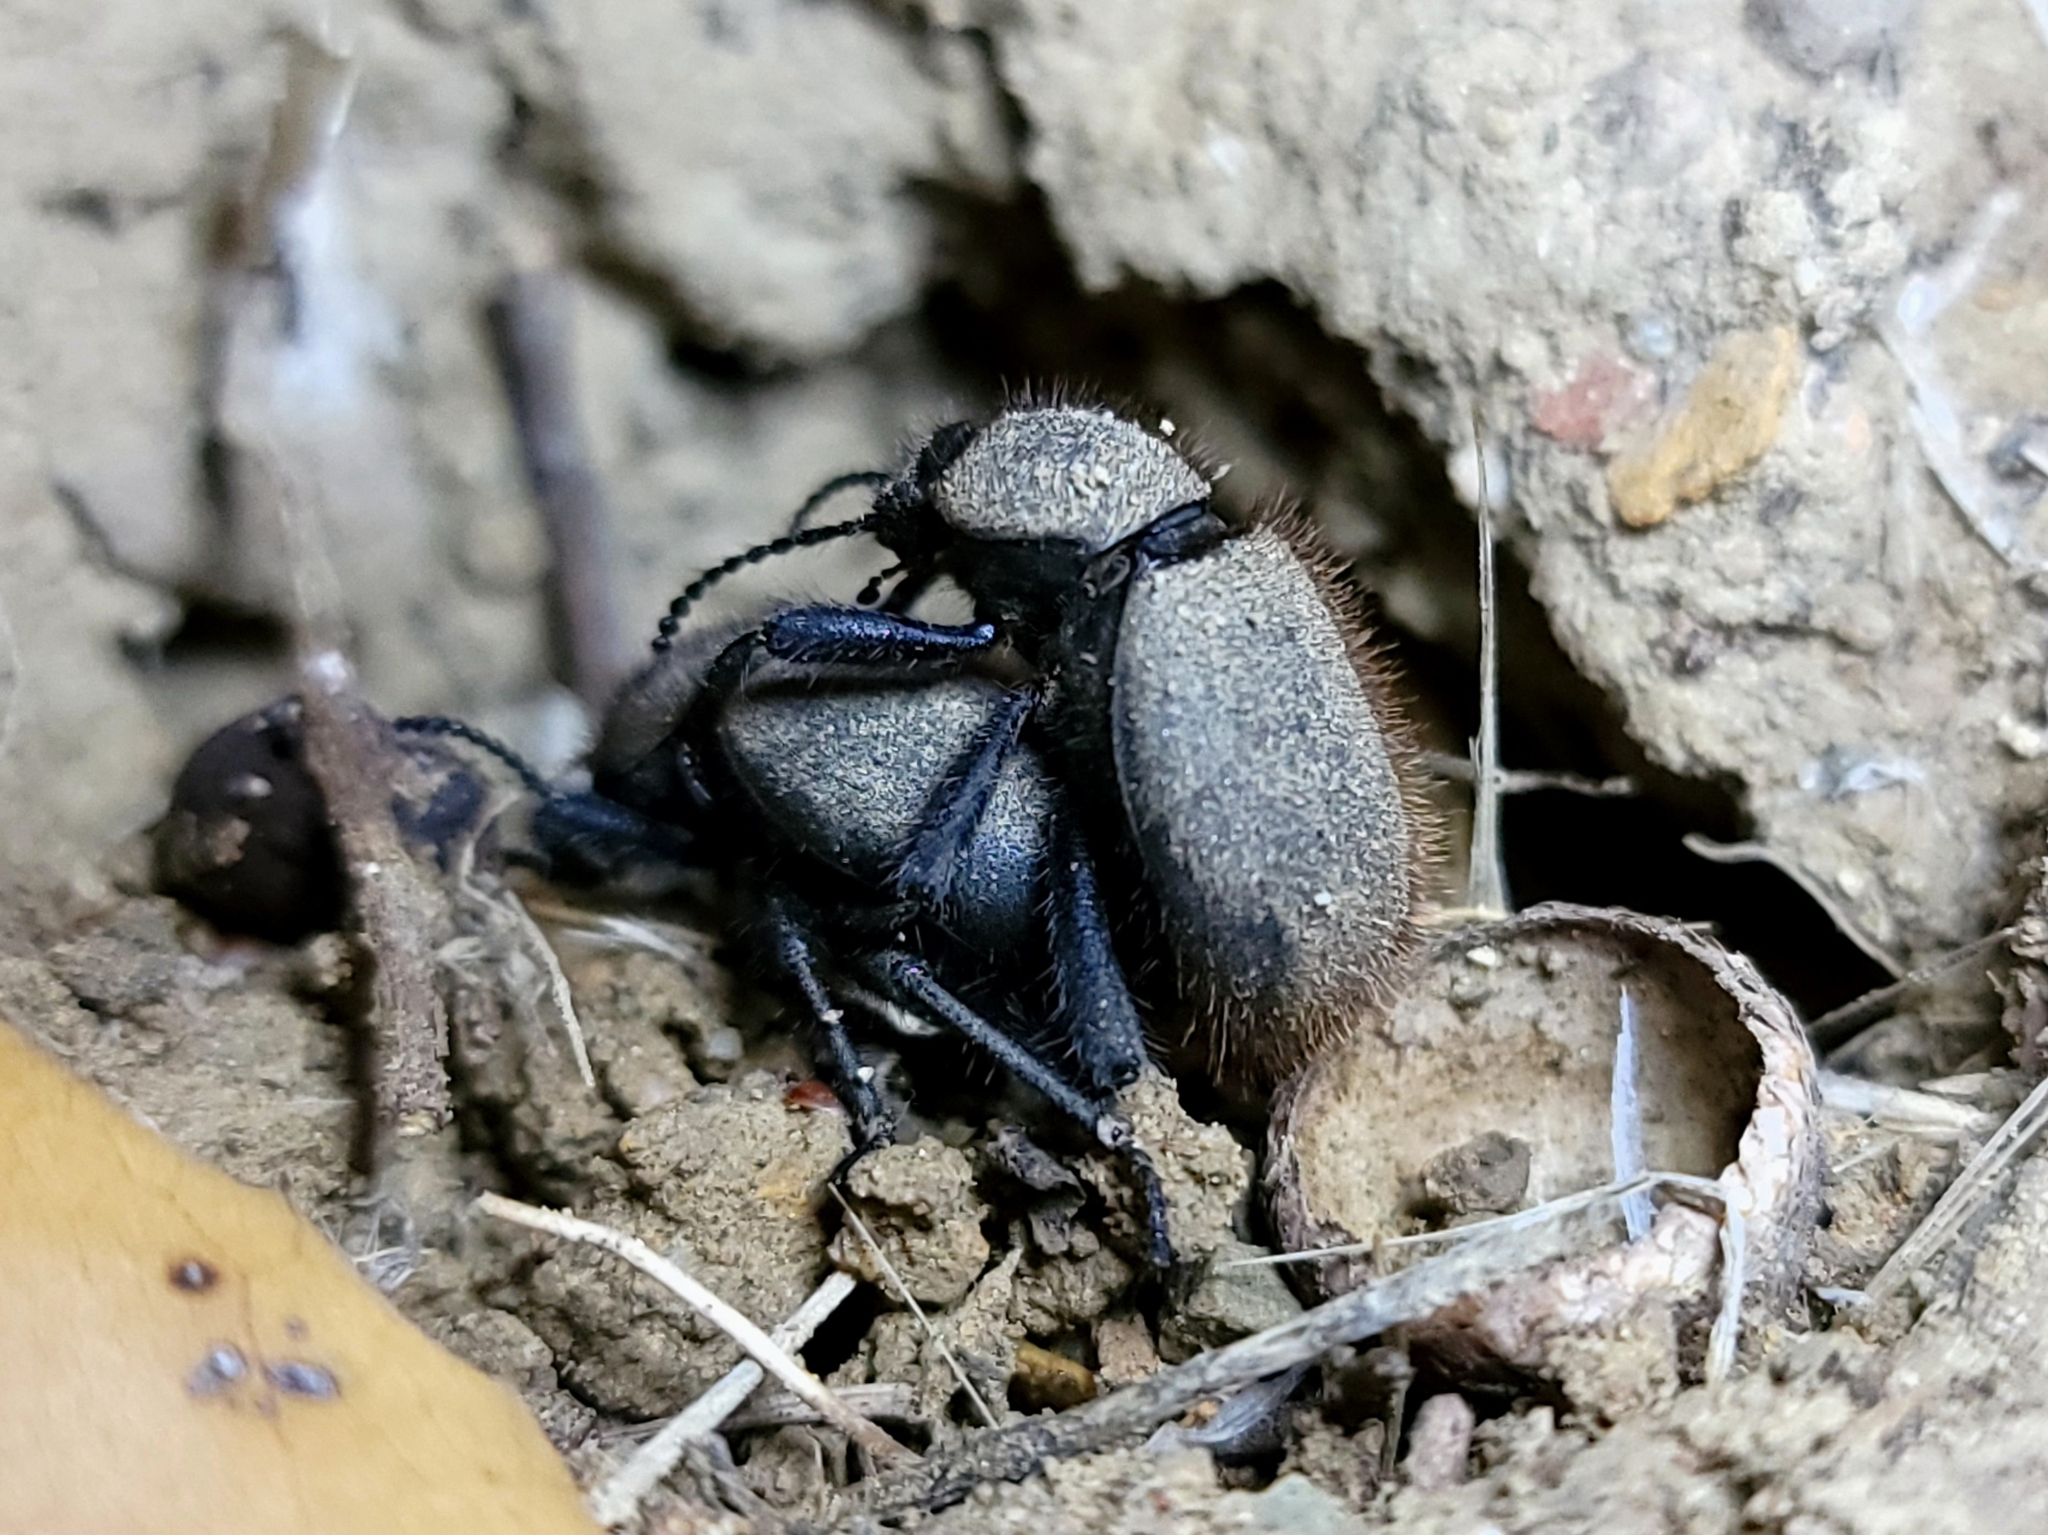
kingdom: Animalia
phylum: Arthropoda
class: Insecta
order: Coleoptera
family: Tenebrionidae
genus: Eleodes
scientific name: Eleodes osculans
